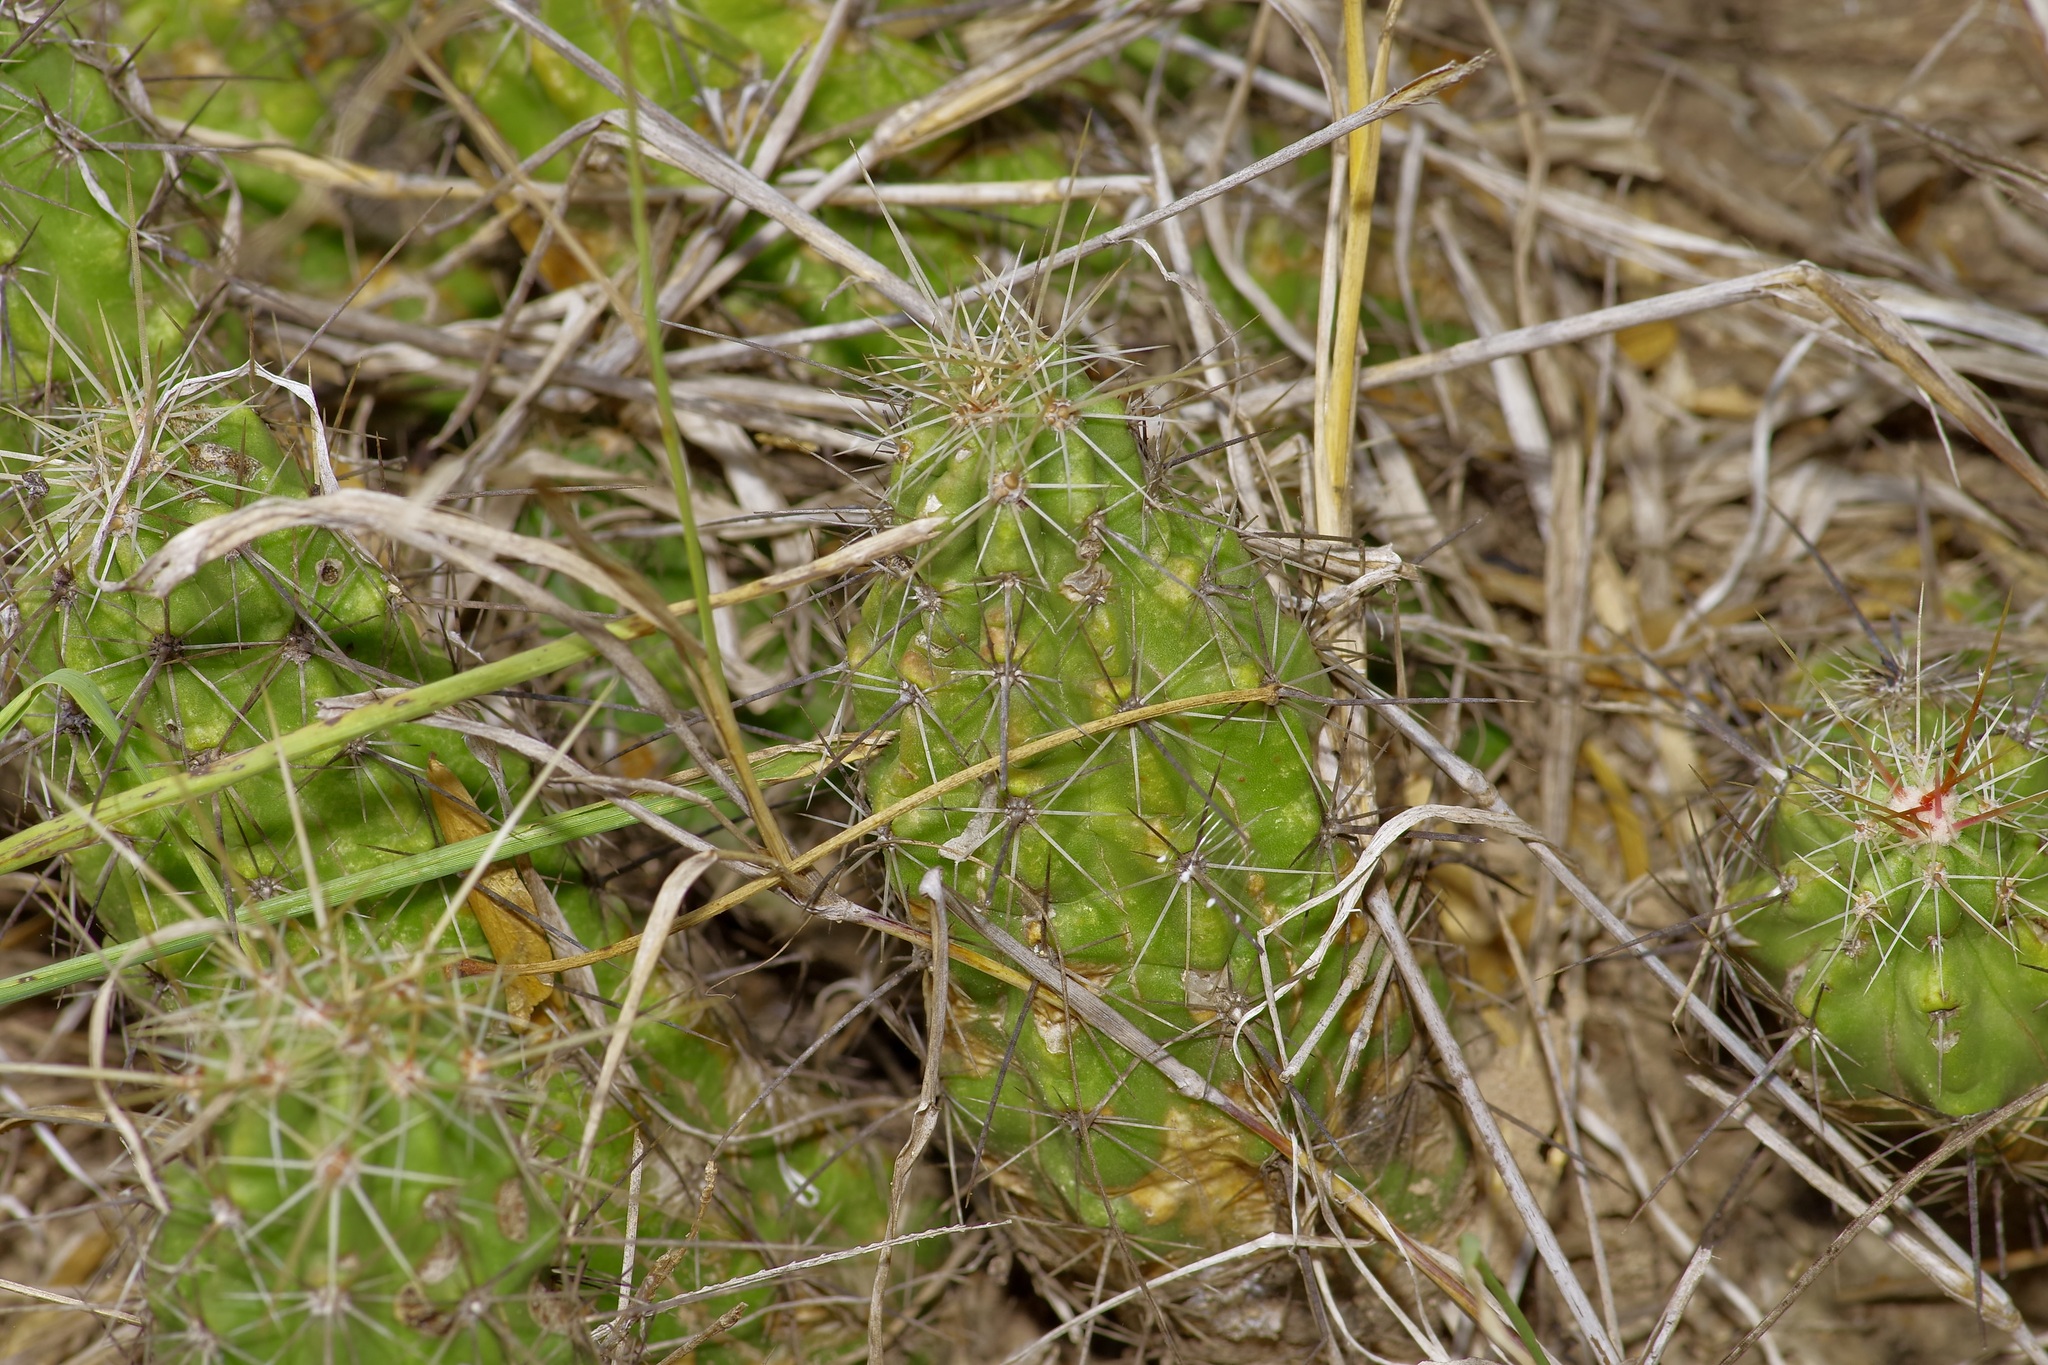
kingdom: Plantae
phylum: Tracheophyta
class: Magnoliopsida
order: Caryophyllales
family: Cactaceae
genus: Echinocereus
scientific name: Echinocereus enneacanthus
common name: Pitaya
